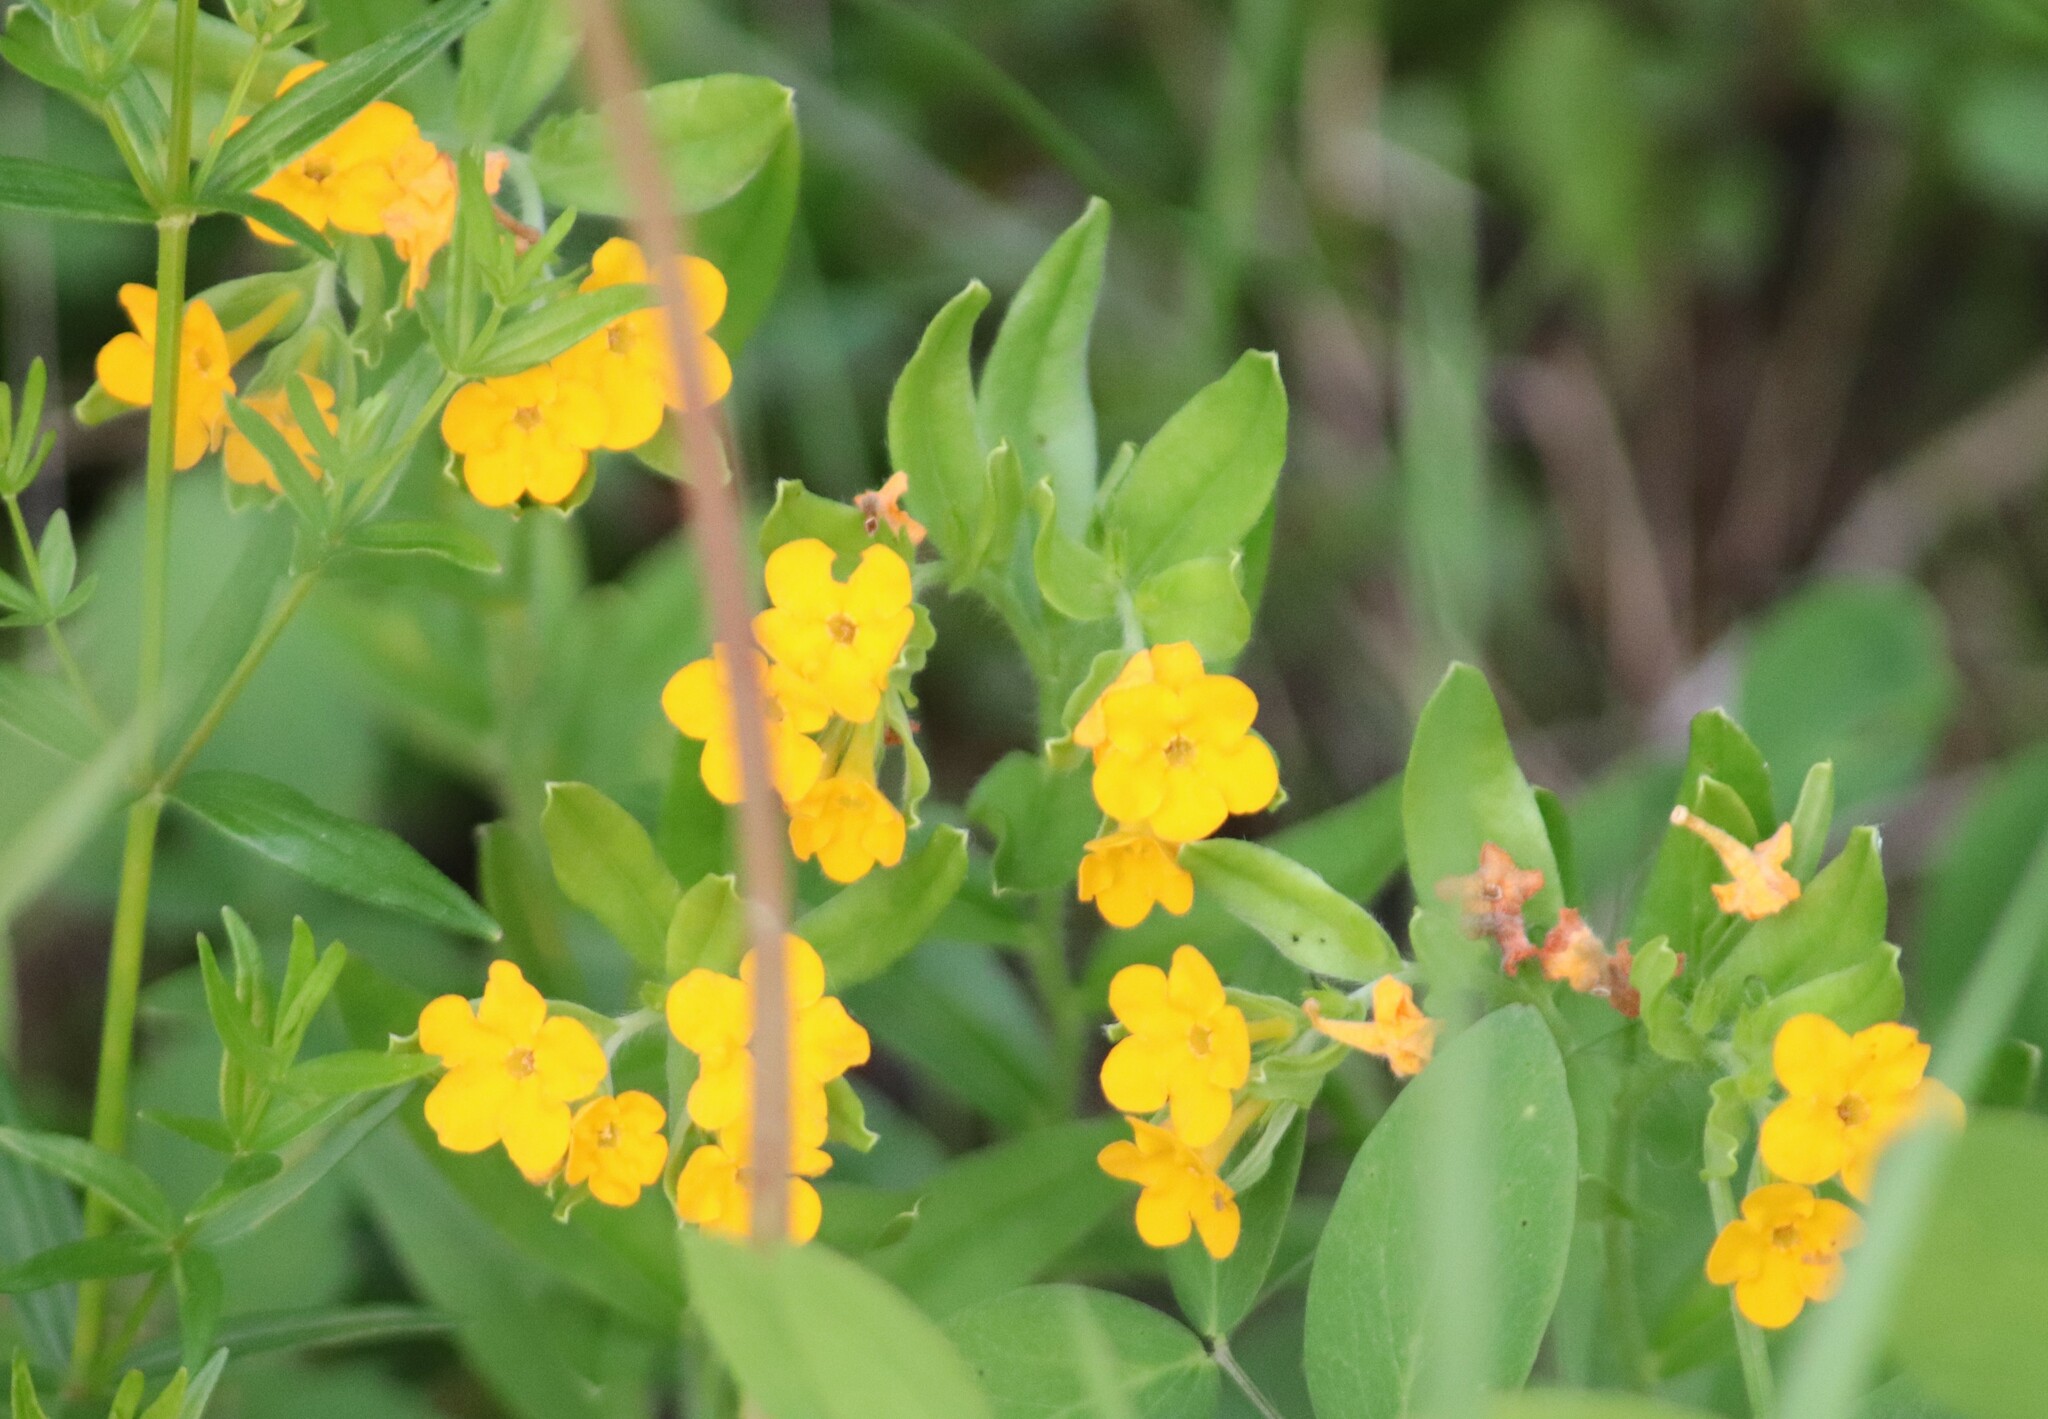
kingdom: Plantae
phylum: Tracheophyta
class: Magnoliopsida
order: Boraginales
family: Boraginaceae
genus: Lithospermum
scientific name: Lithospermum canescens
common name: Hoary puccoon
